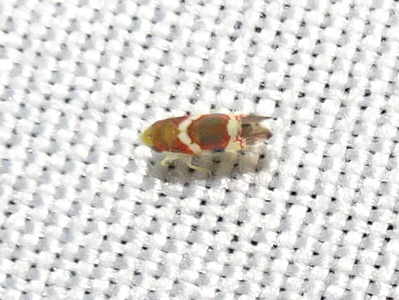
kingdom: Animalia
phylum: Arthropoda
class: Insecta
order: Hemiptera
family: Cicadellidae
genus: Erythroneura
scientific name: Erythroneura vitis
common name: Grapevine leafhopper
